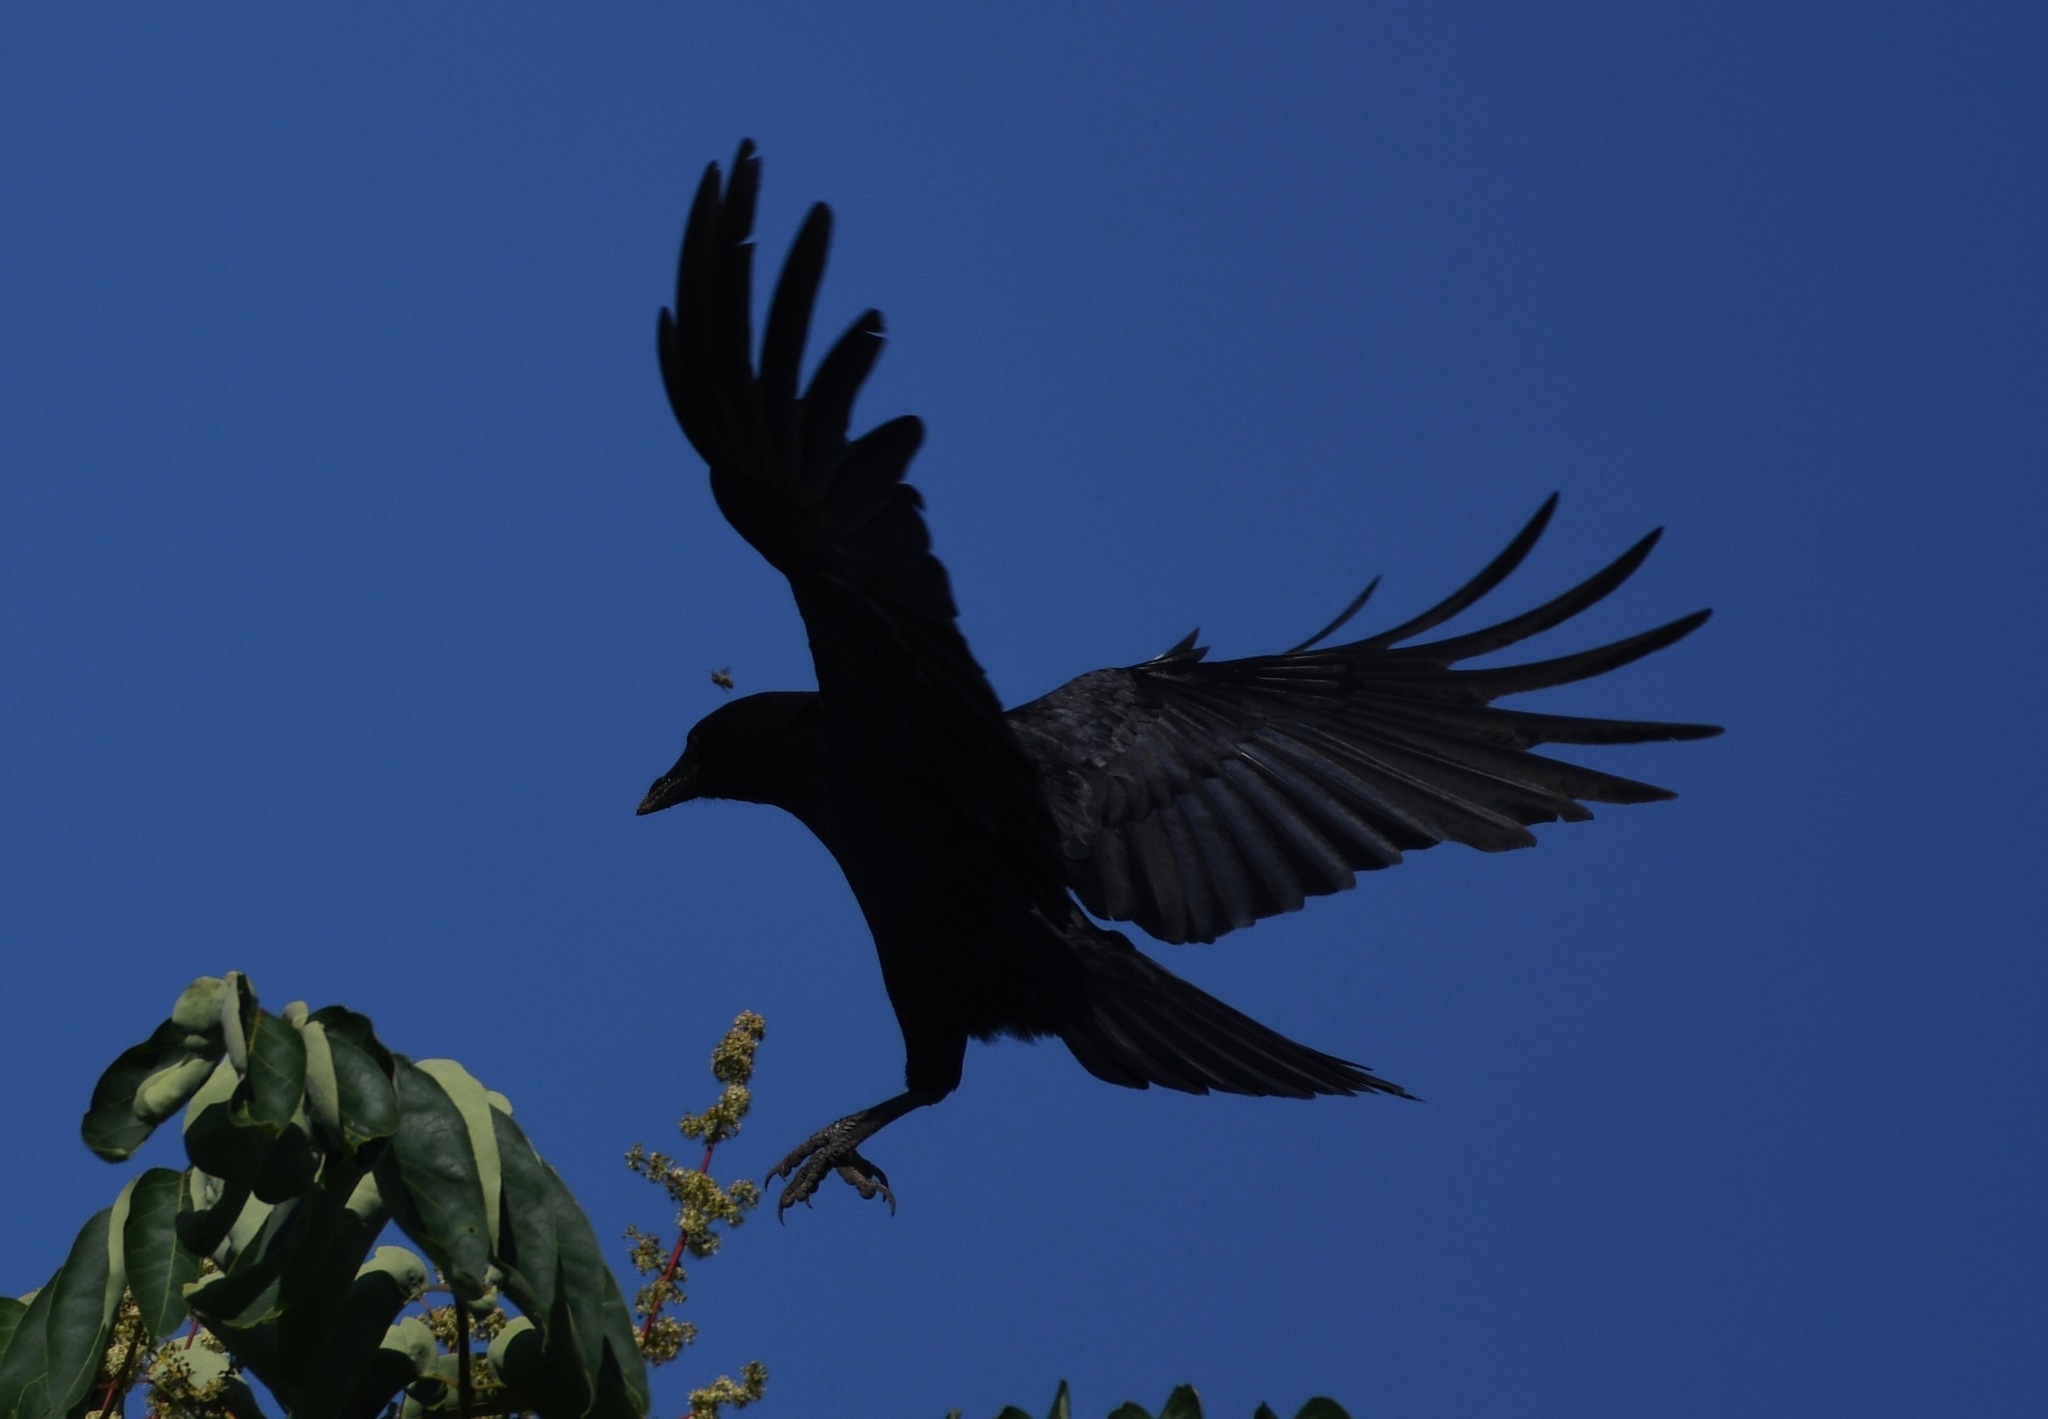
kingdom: Animalia
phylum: Chordata
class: Aves
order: Passeriformes
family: Corvidae
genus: Corvus
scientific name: Corvus brachyrhynchos
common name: American crow
